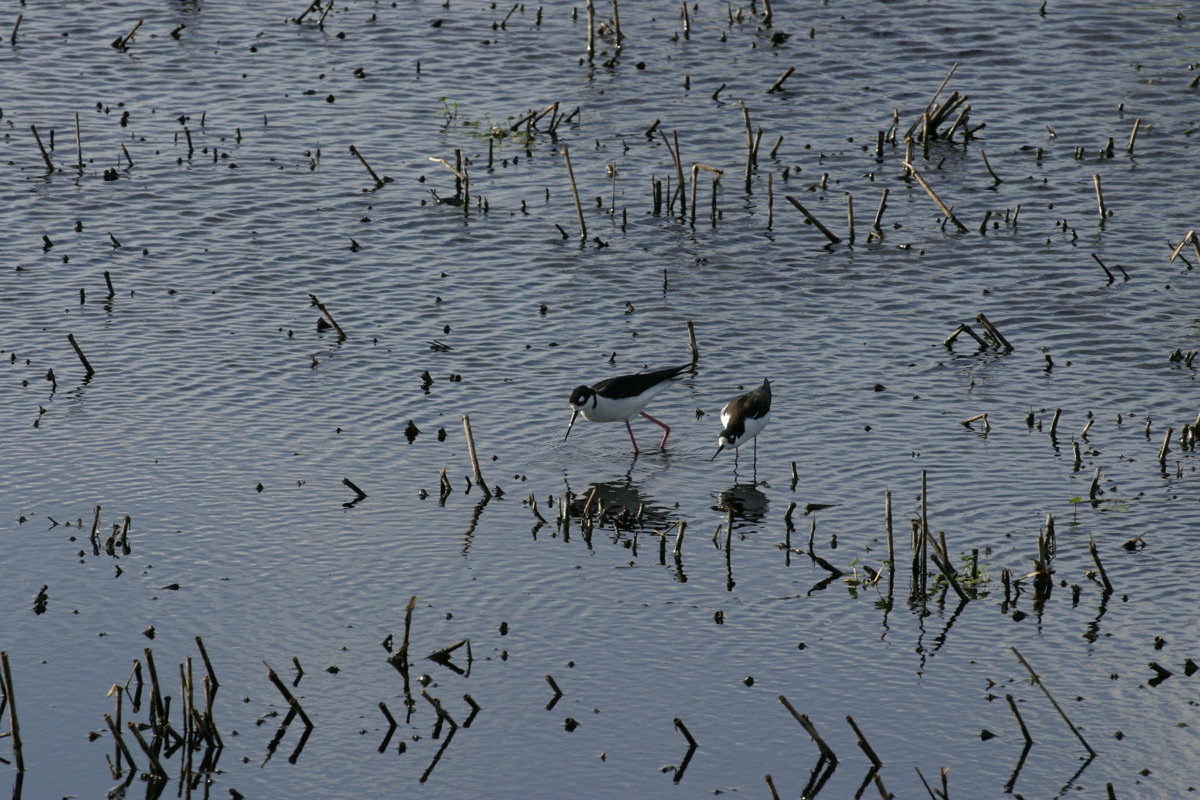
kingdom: Animalia
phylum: Chordata
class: Aves
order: Charadriiformes
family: Recurvirostridae
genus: Himantopus
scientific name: Himantopus mexicanus
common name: Black-necked stilt
